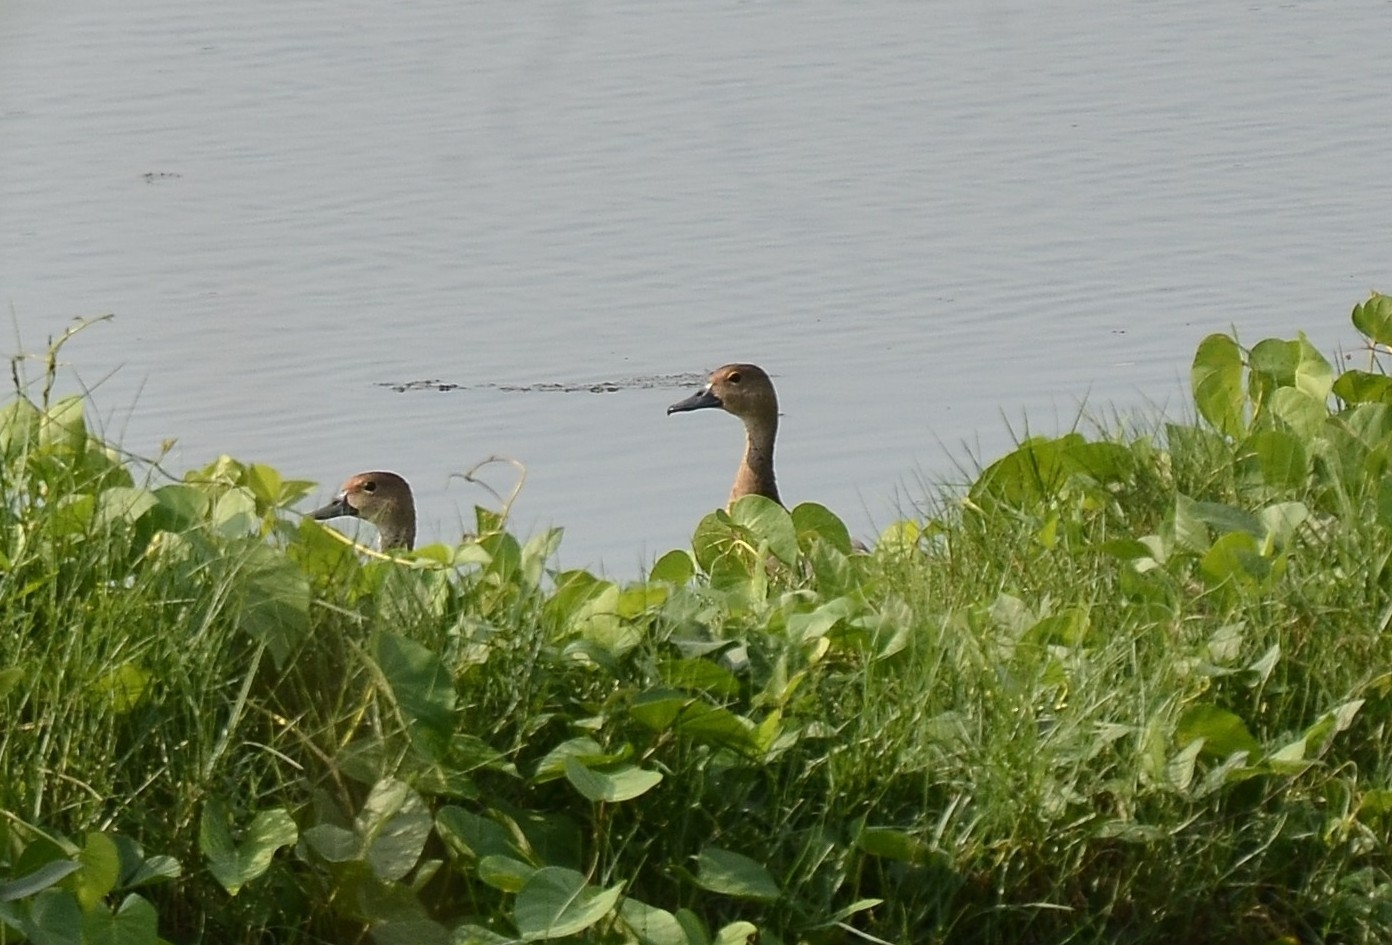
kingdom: Animalia
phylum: Chordata
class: Aves
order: Anseriformes
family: Anatidae
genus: Dendrocygna
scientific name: Dendrocygna javanica
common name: Lesser whistling-duck
